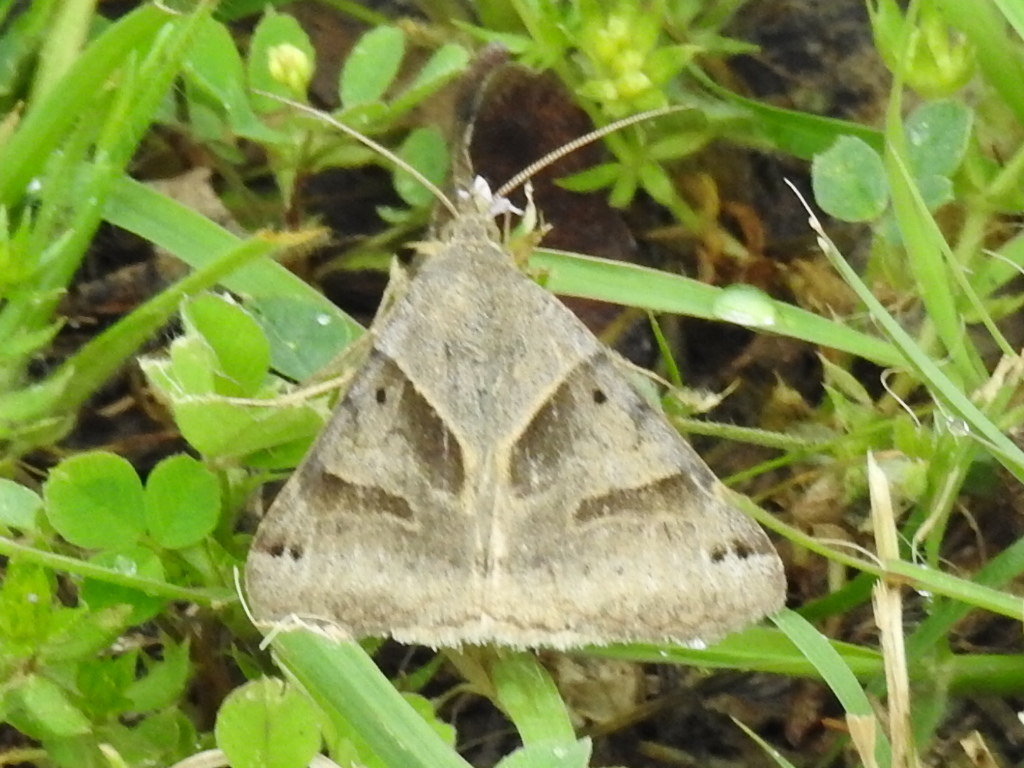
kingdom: Animalia
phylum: Arthropoda
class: Insecta
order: Lepidoptera
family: Erebidae
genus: Caenurgina
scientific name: Caenurgina erechtea
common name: Forage looper moth
